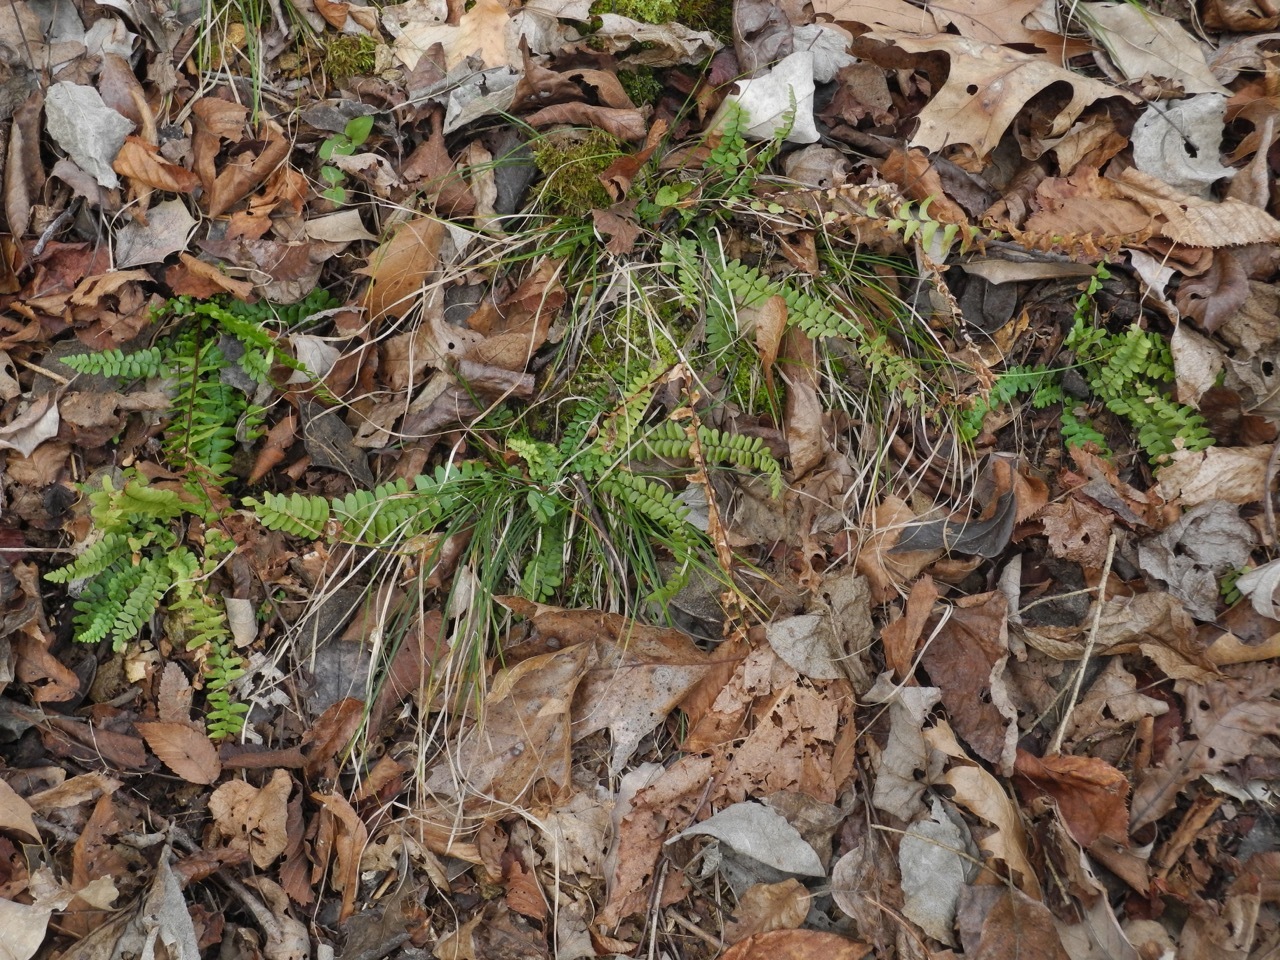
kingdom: Plantae
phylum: Tracheophyta
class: Polypodiopsida
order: Polypodiales
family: Aspleniaceae
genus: Asplenium
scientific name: Asplenium platyneuron
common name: Ebony spleenwort
